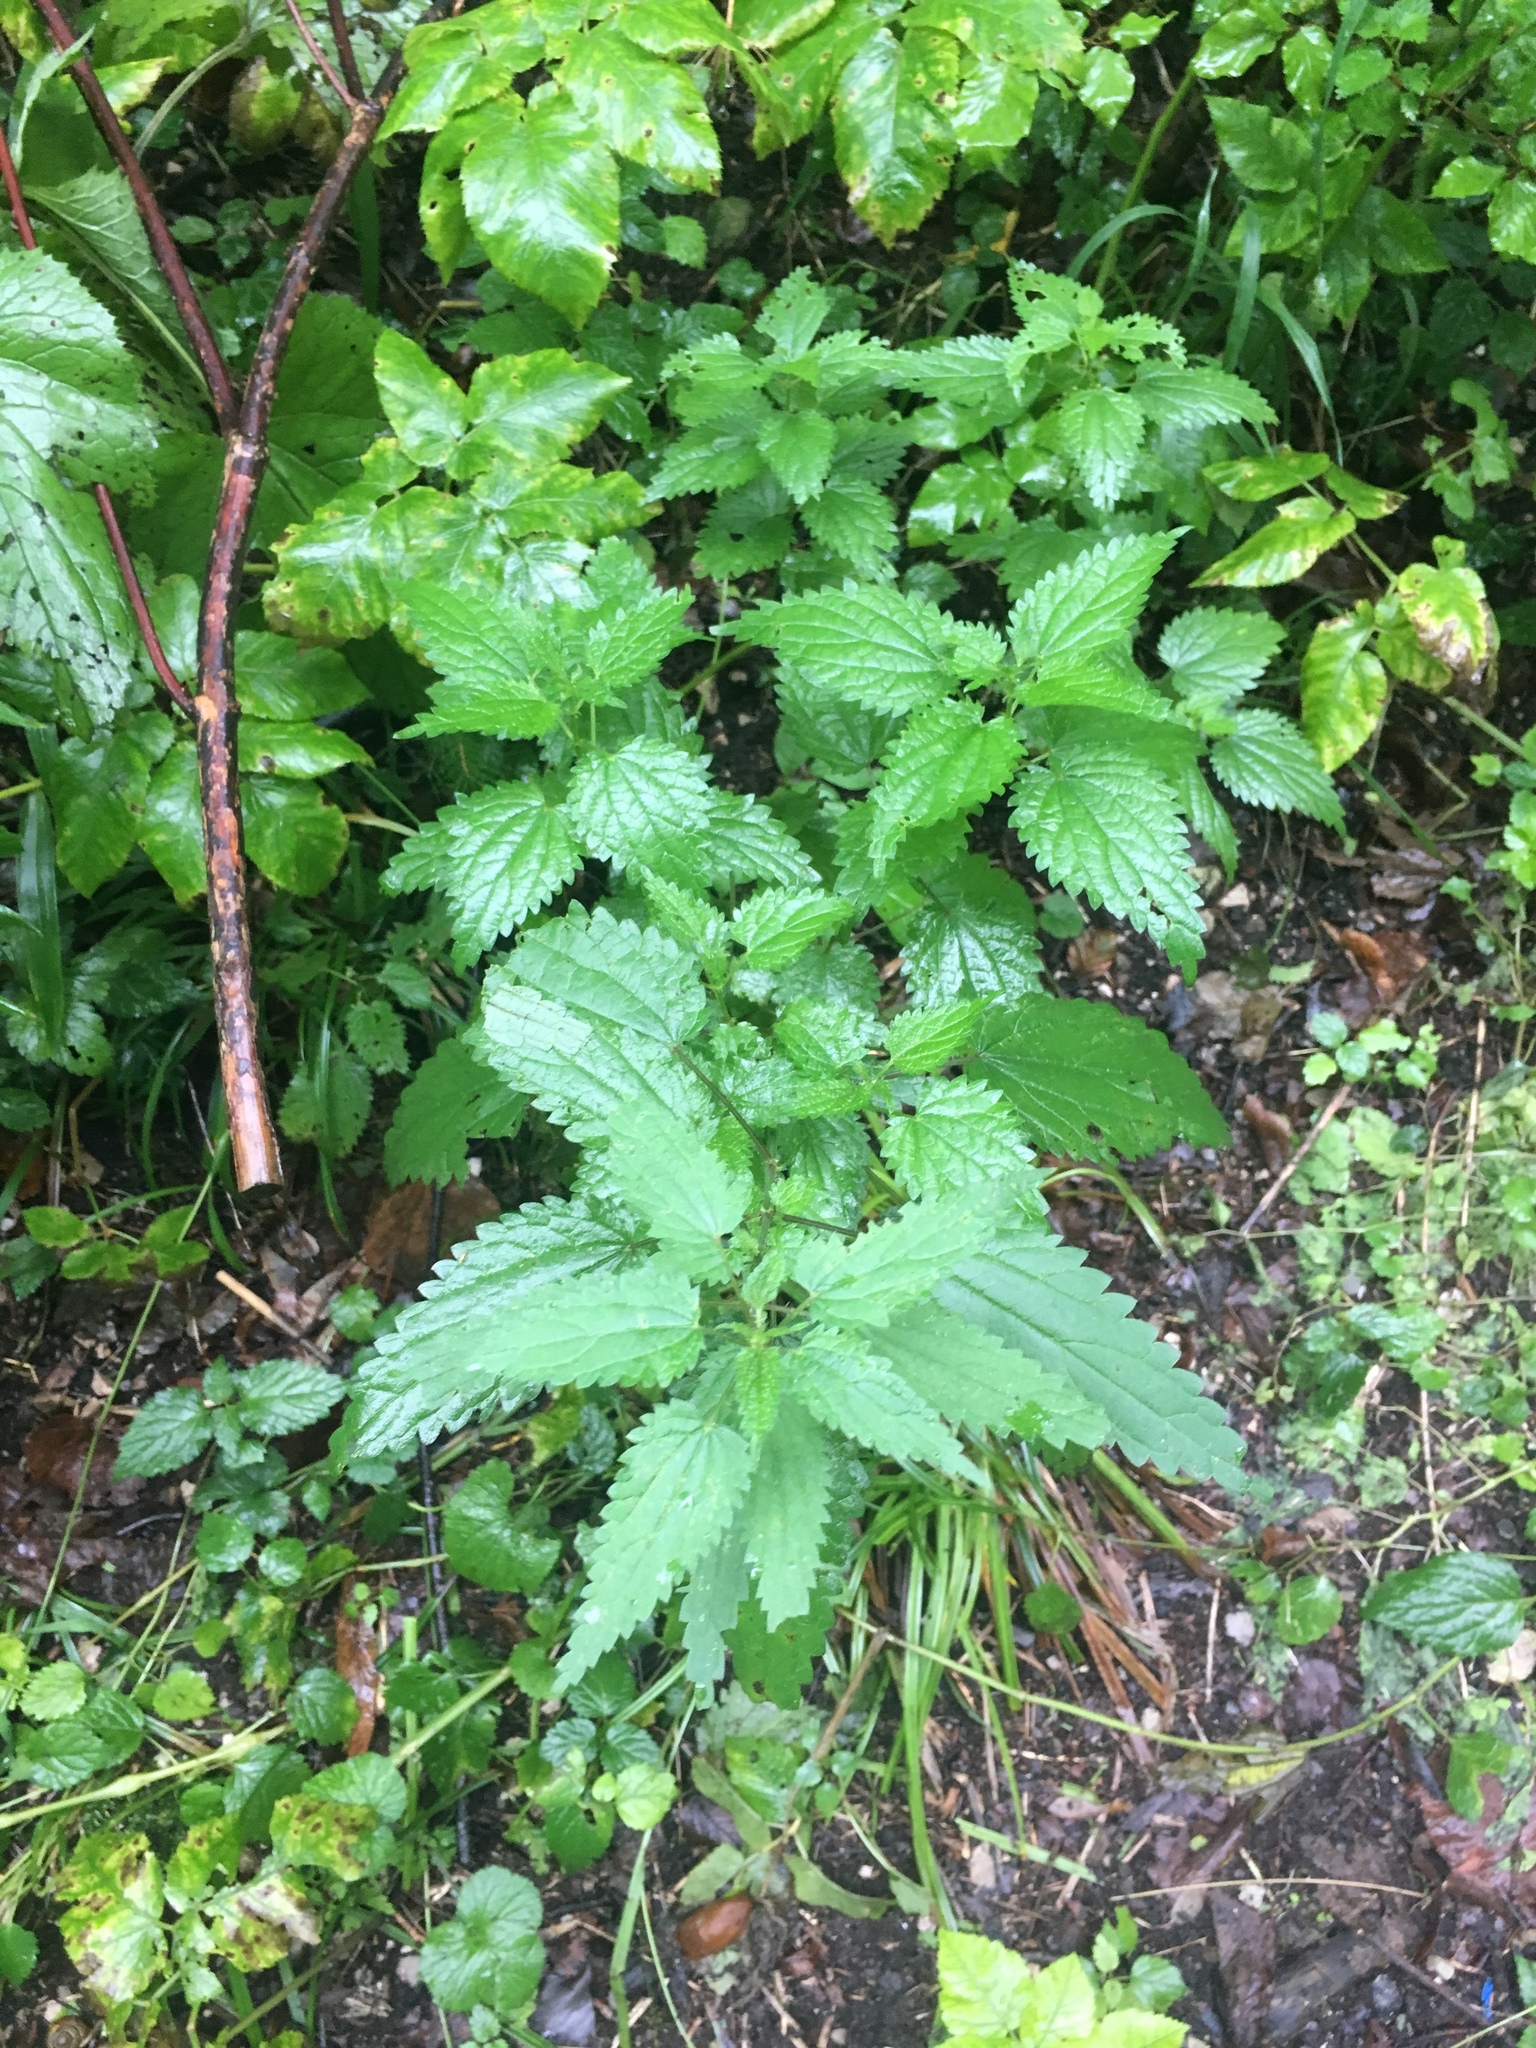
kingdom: Plantae
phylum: Tracheophyta
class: Magnoliopsida
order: Rosales
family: Urticaceae
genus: Urtica
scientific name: Urtica dioica
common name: Common nettle
